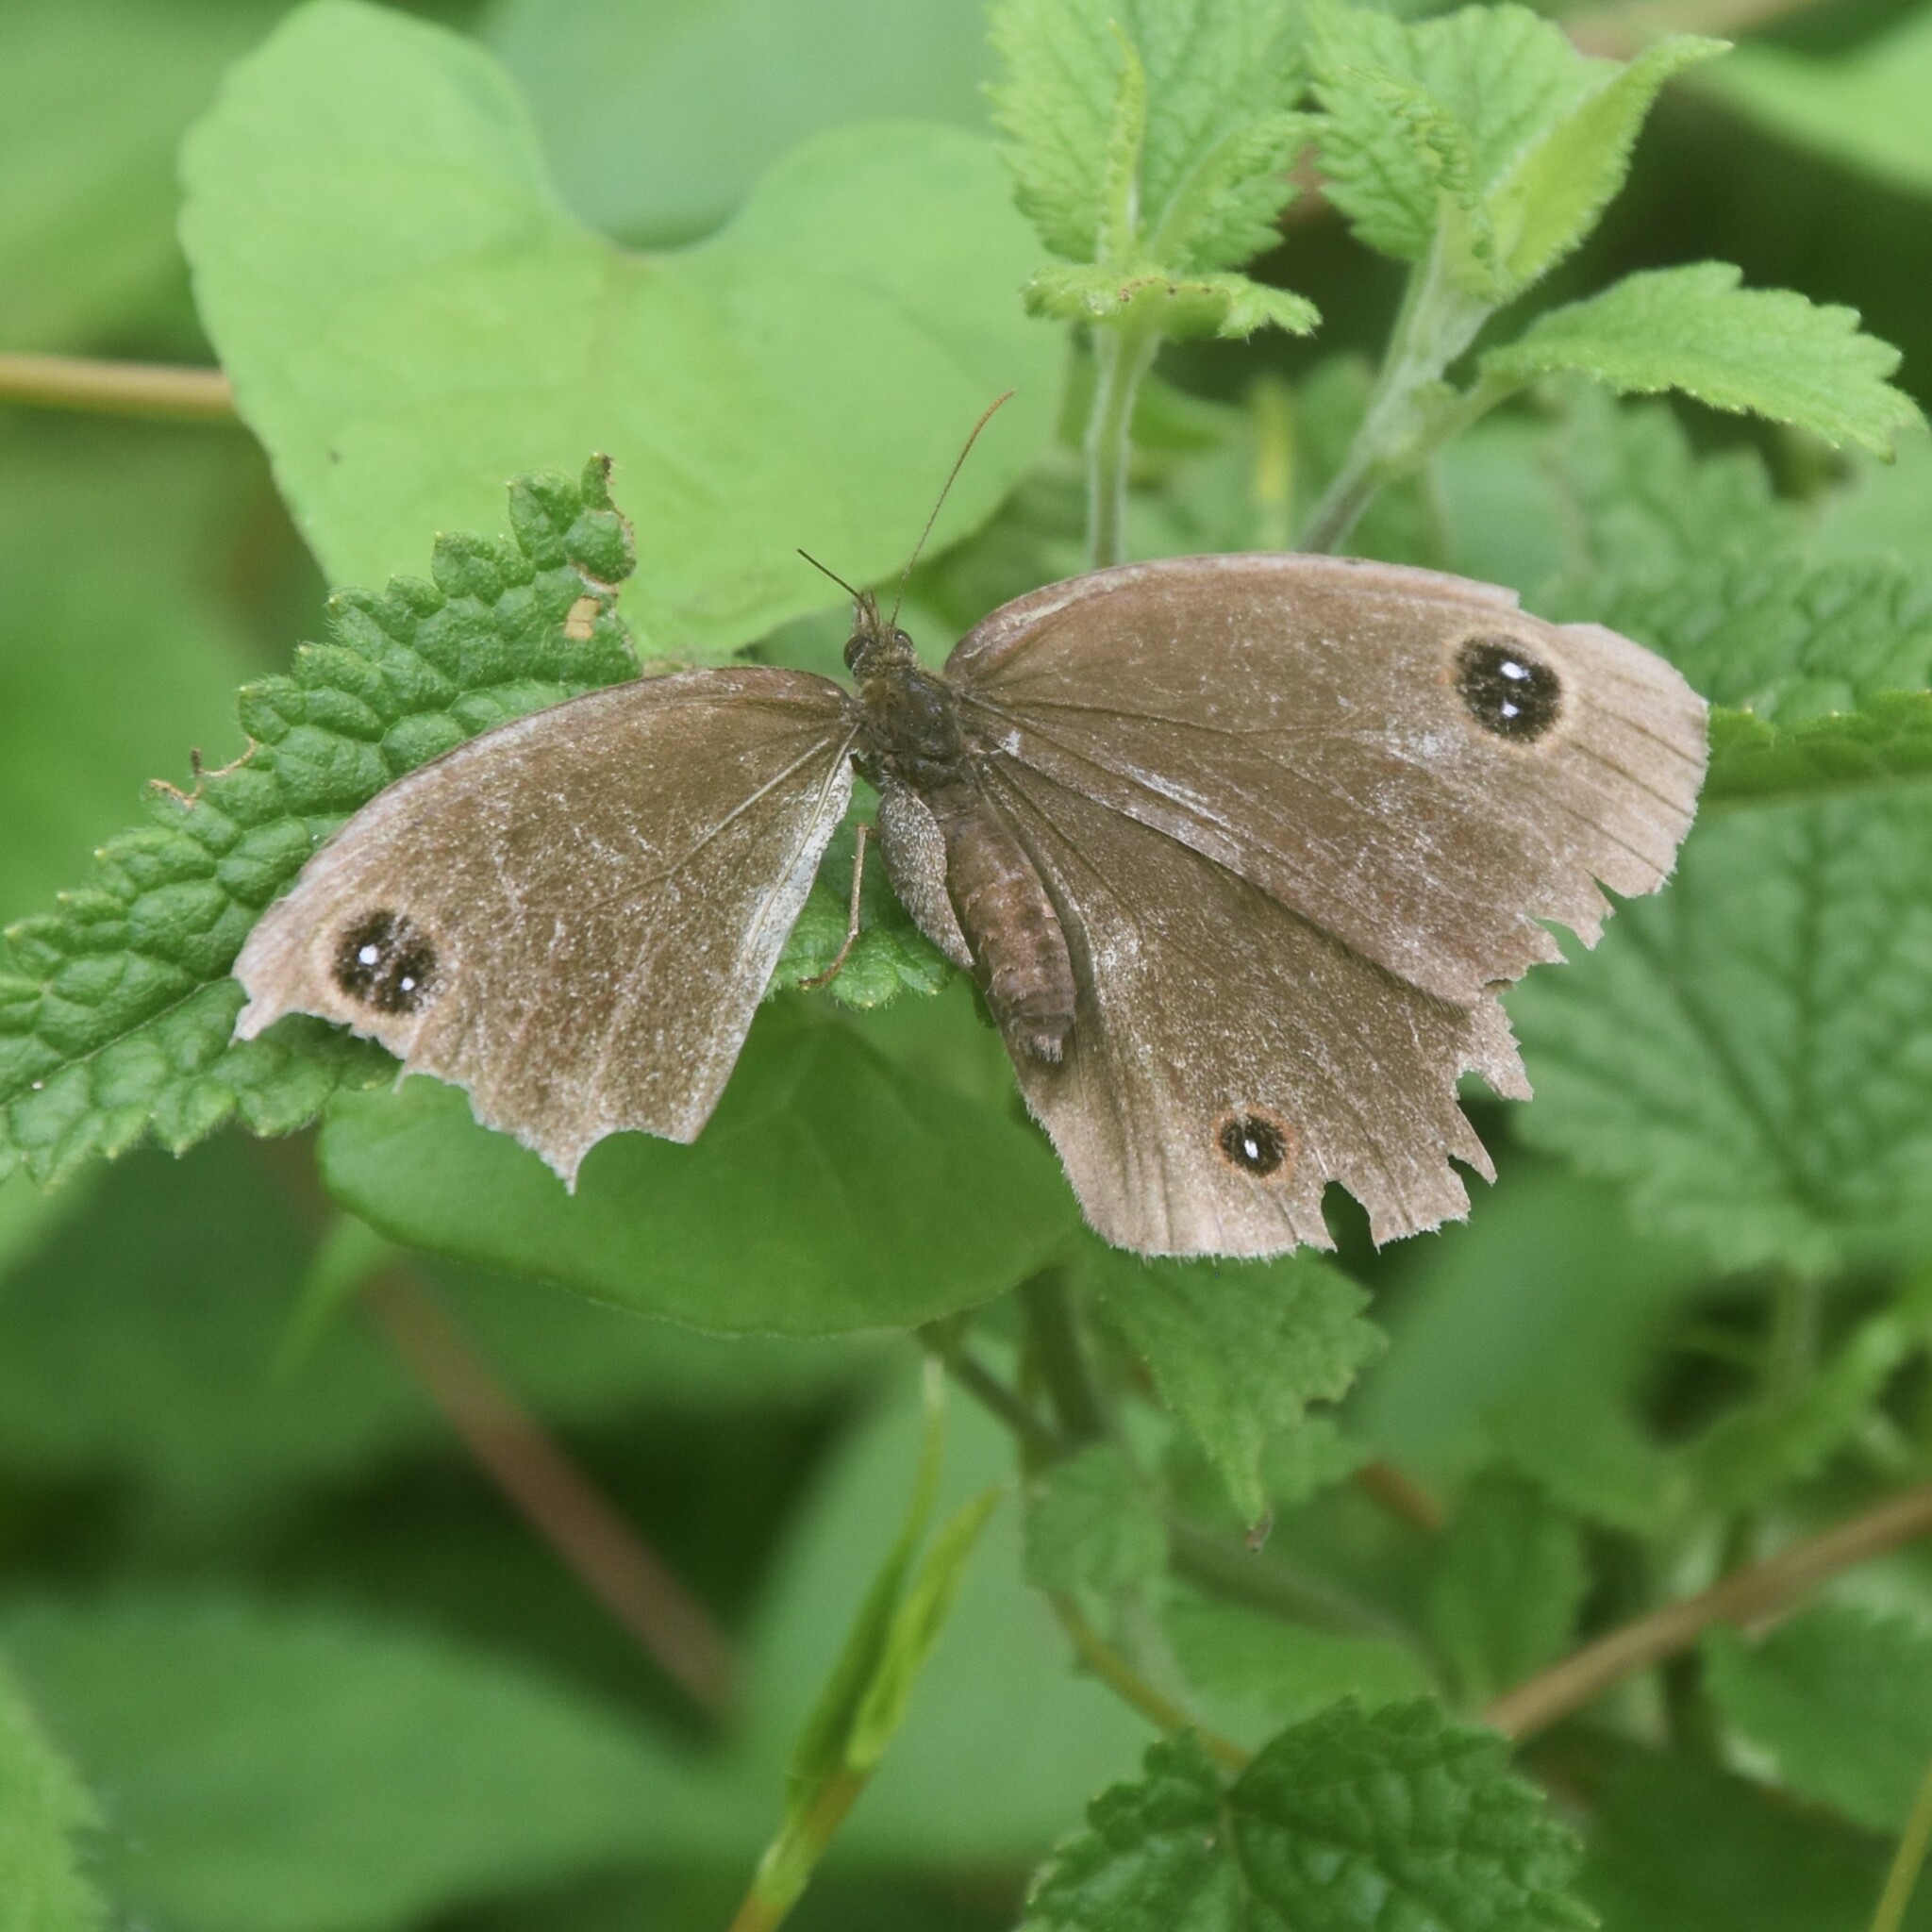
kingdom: Animalia
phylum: Arthropoda
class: Insecta
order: Lepidoptera
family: Nymphalidae
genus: Callerebia
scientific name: Callerebia nirmala
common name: Common argus
